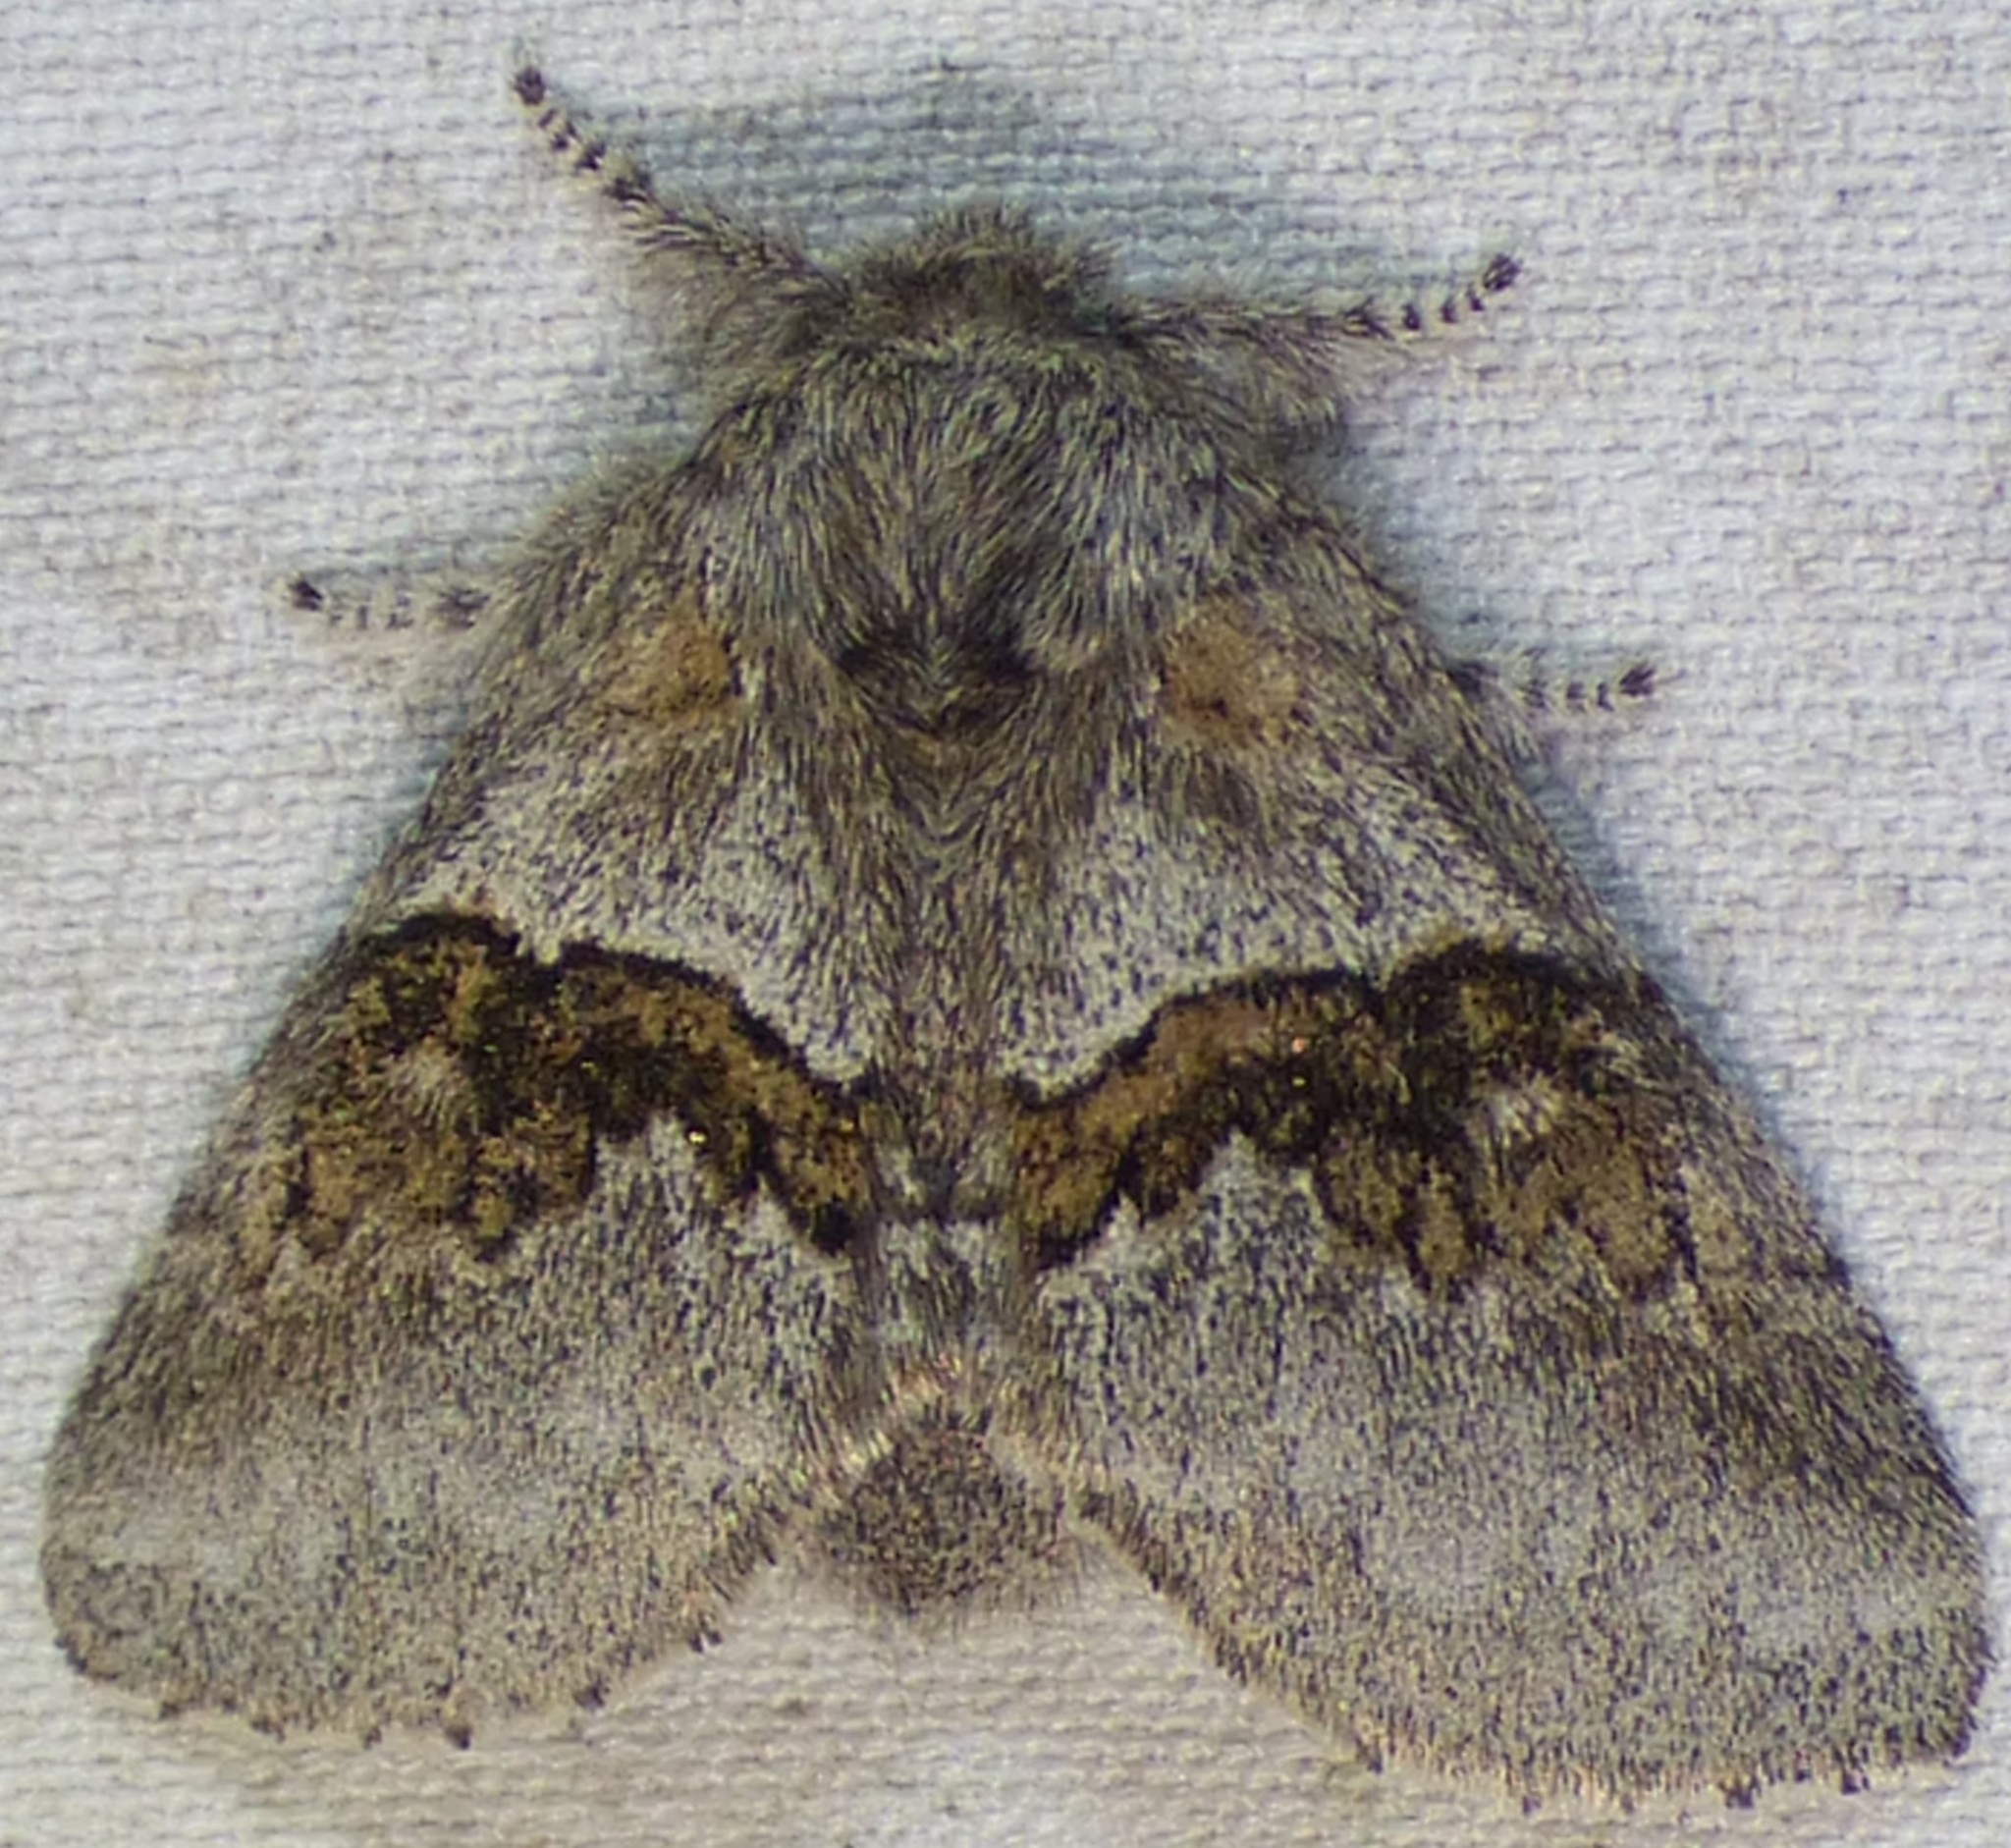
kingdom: Animalia
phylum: Arthropoda
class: Insecta
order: Lepidoptera
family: Notodontidae
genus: Gluphisia
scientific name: Gluphisia septentrionis
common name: Common gluphisia
